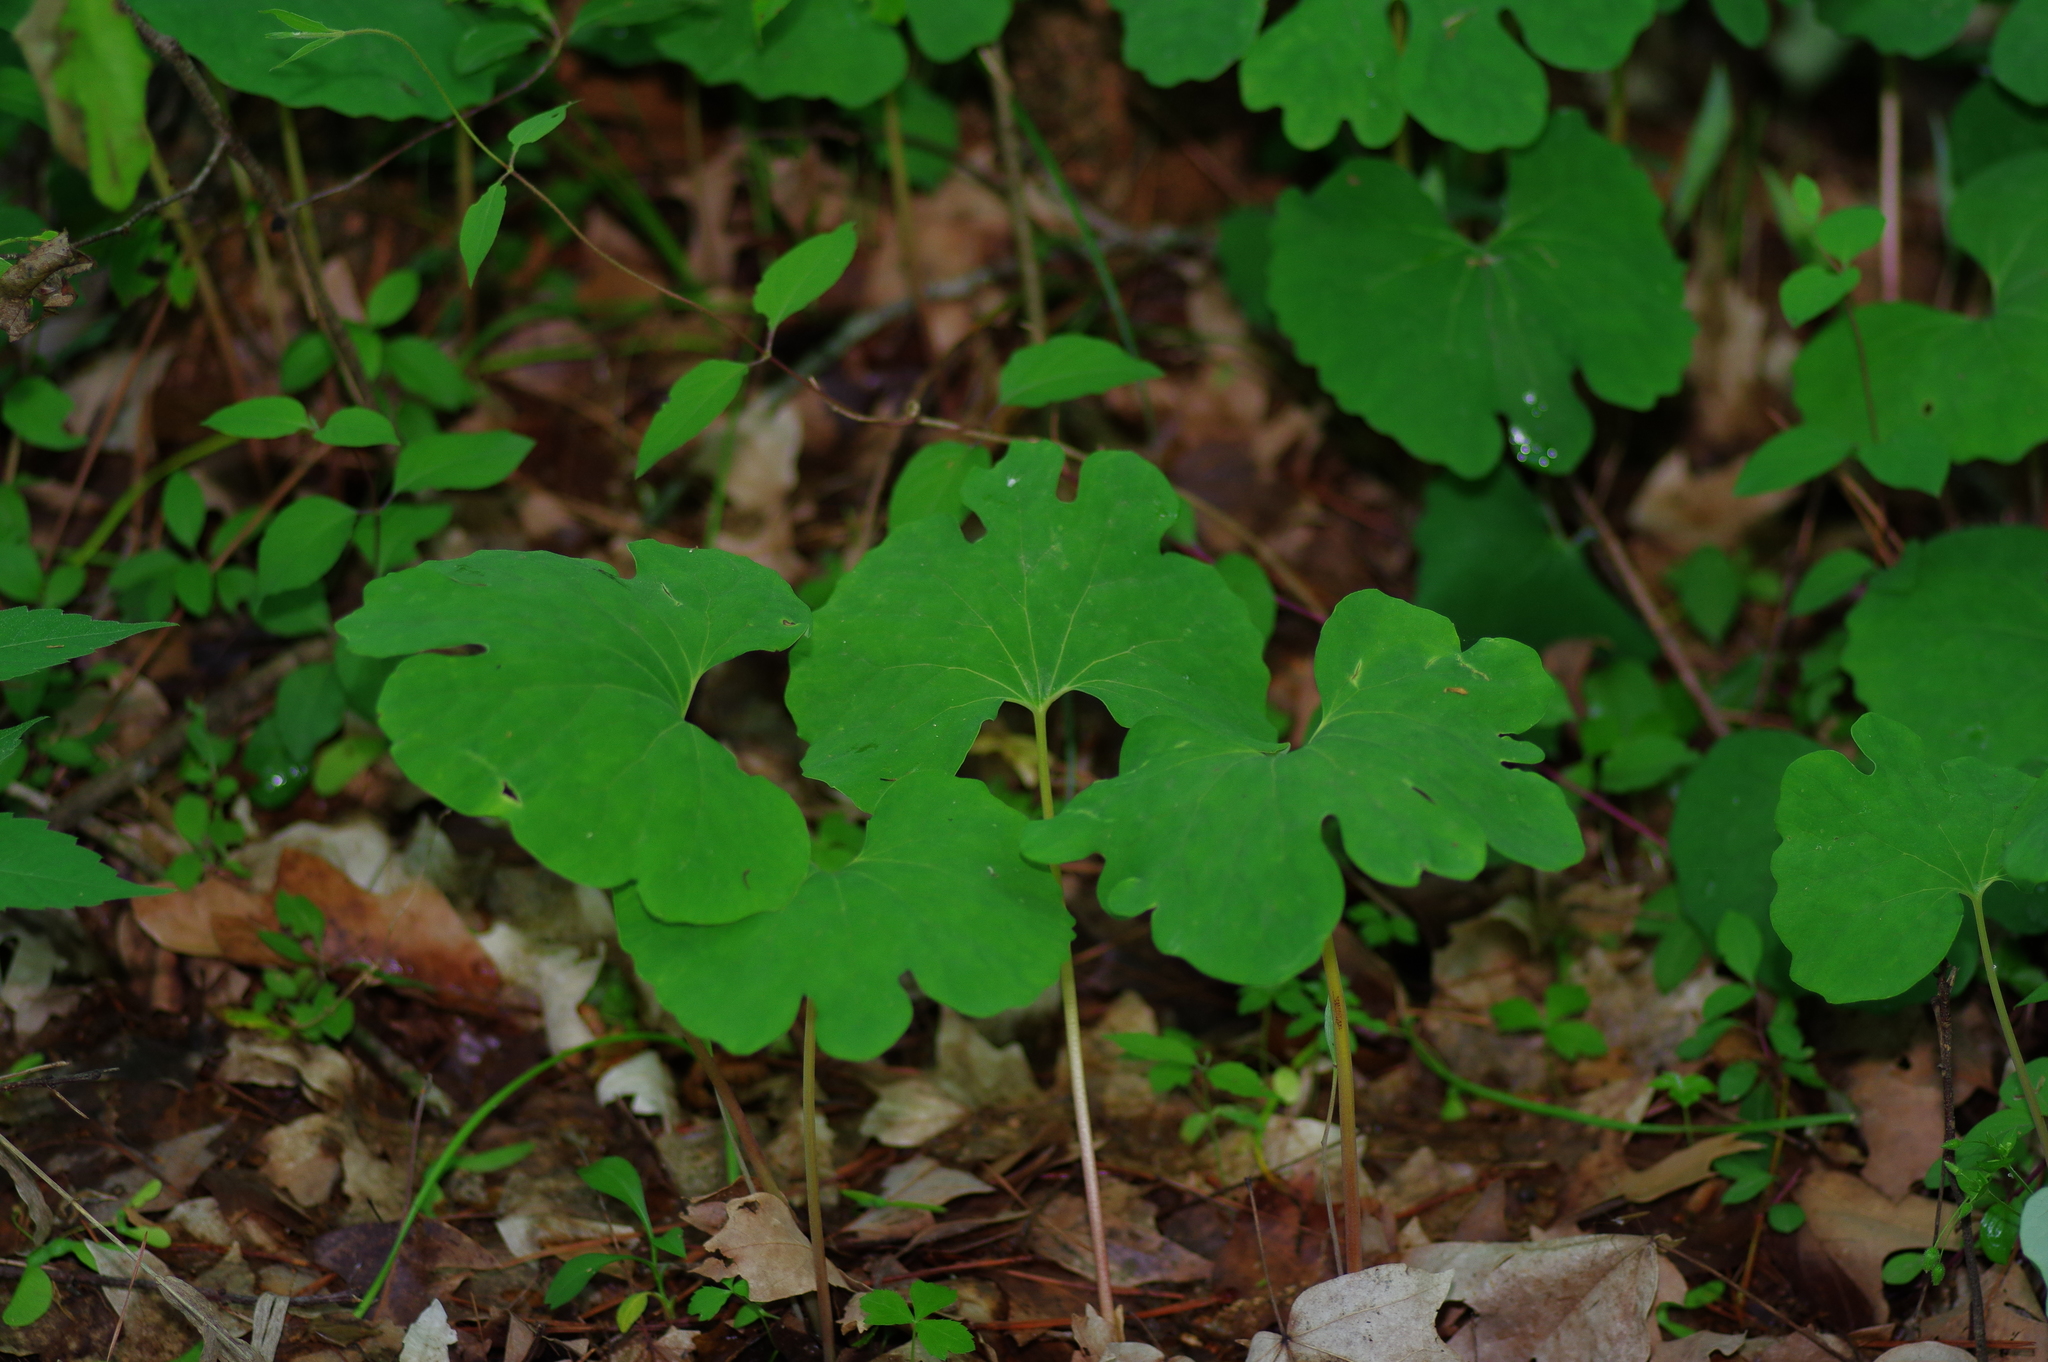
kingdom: Plantae
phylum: Tracheophyta
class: Magnoliopsida
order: Ranunculales
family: Papaveraceae
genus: Sanguinaria
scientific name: Sanguinaria canadensis
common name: Bloodroot
